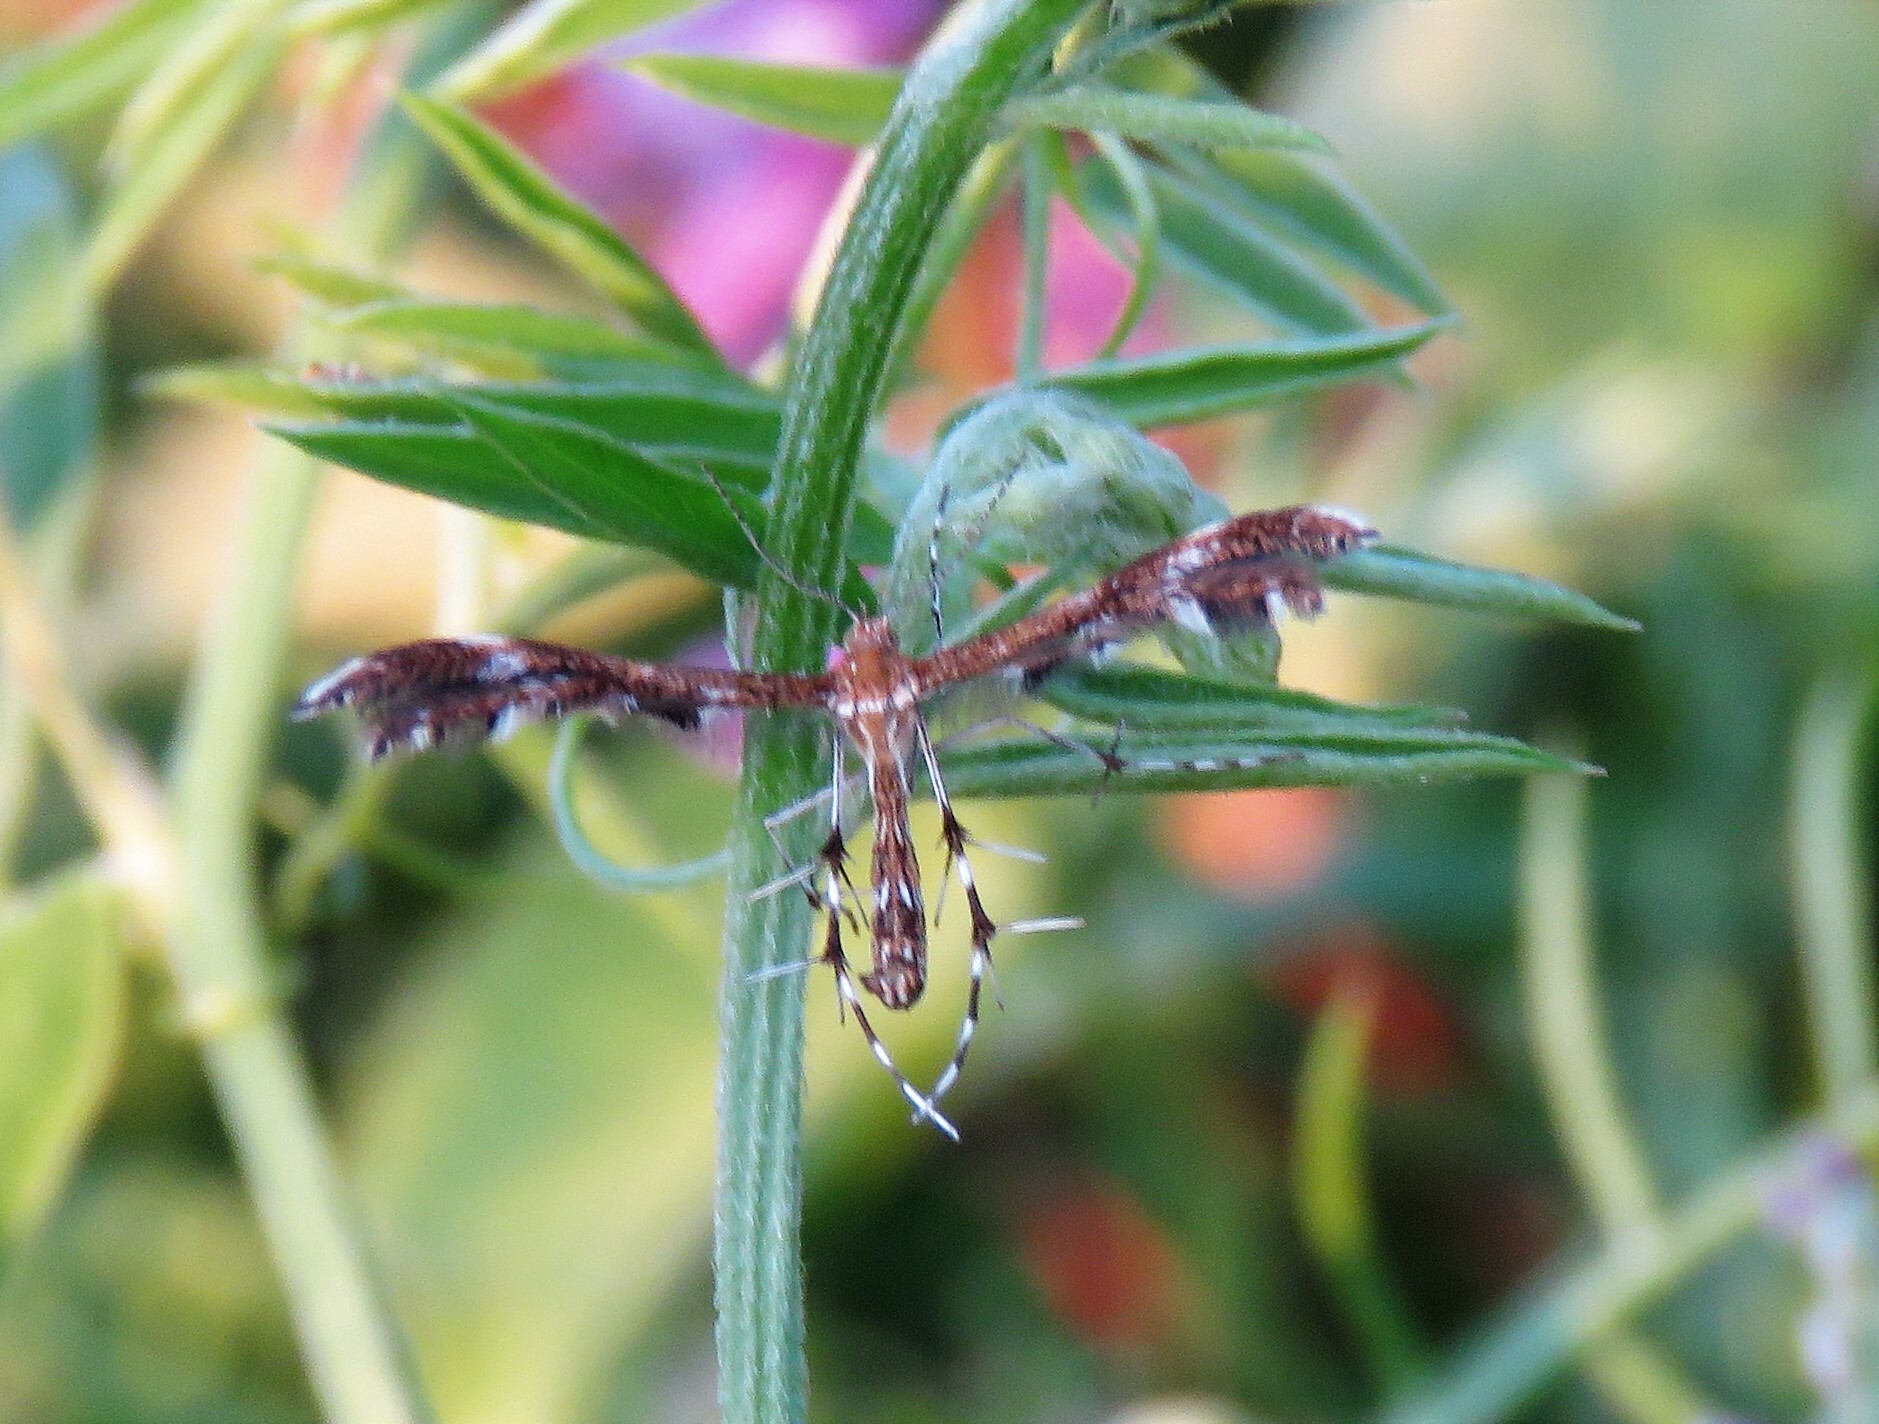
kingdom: Animalia
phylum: Arthropoda
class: Insecta
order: Lepidoptera
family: Pterophoridae
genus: Dejongia
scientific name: Dejongia lobidactylus
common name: Lobed plume moth
